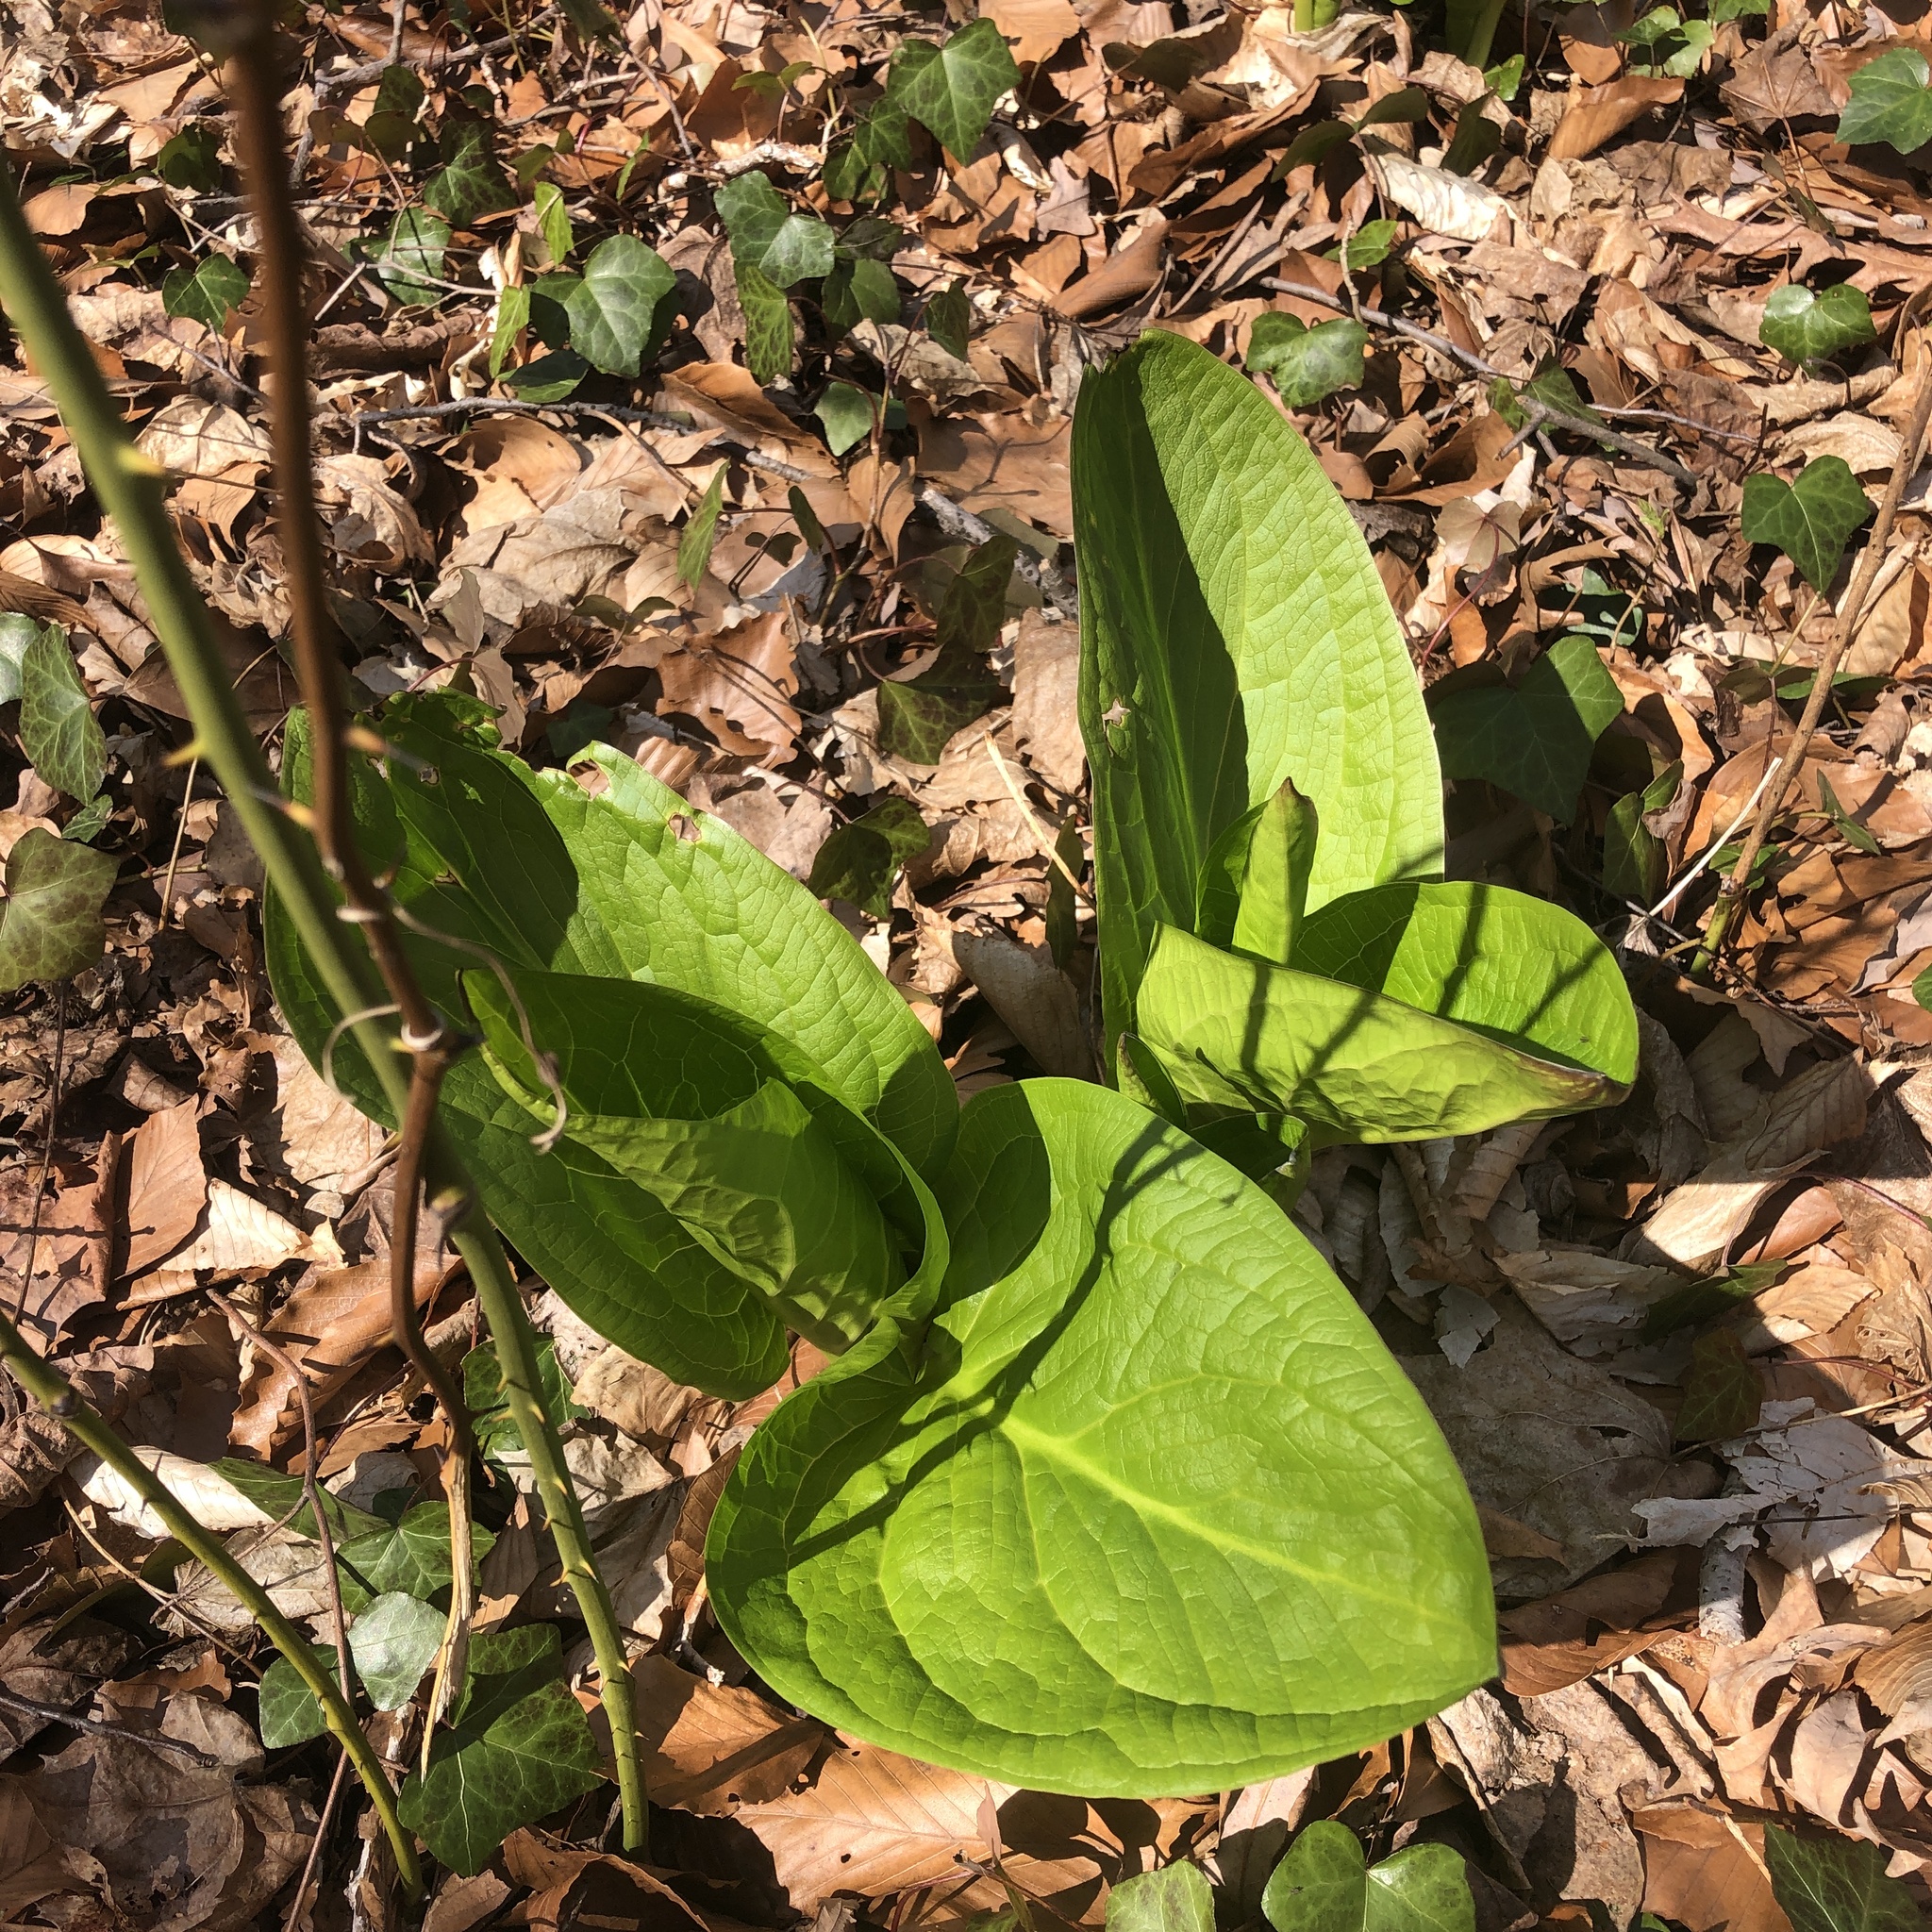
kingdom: Plantae
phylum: Tracheophyta
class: Liliopsida
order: Alismatales
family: Araceae
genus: Symplocarpus
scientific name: Symplocarpus foetidus
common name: Eastern skunk cabbage
